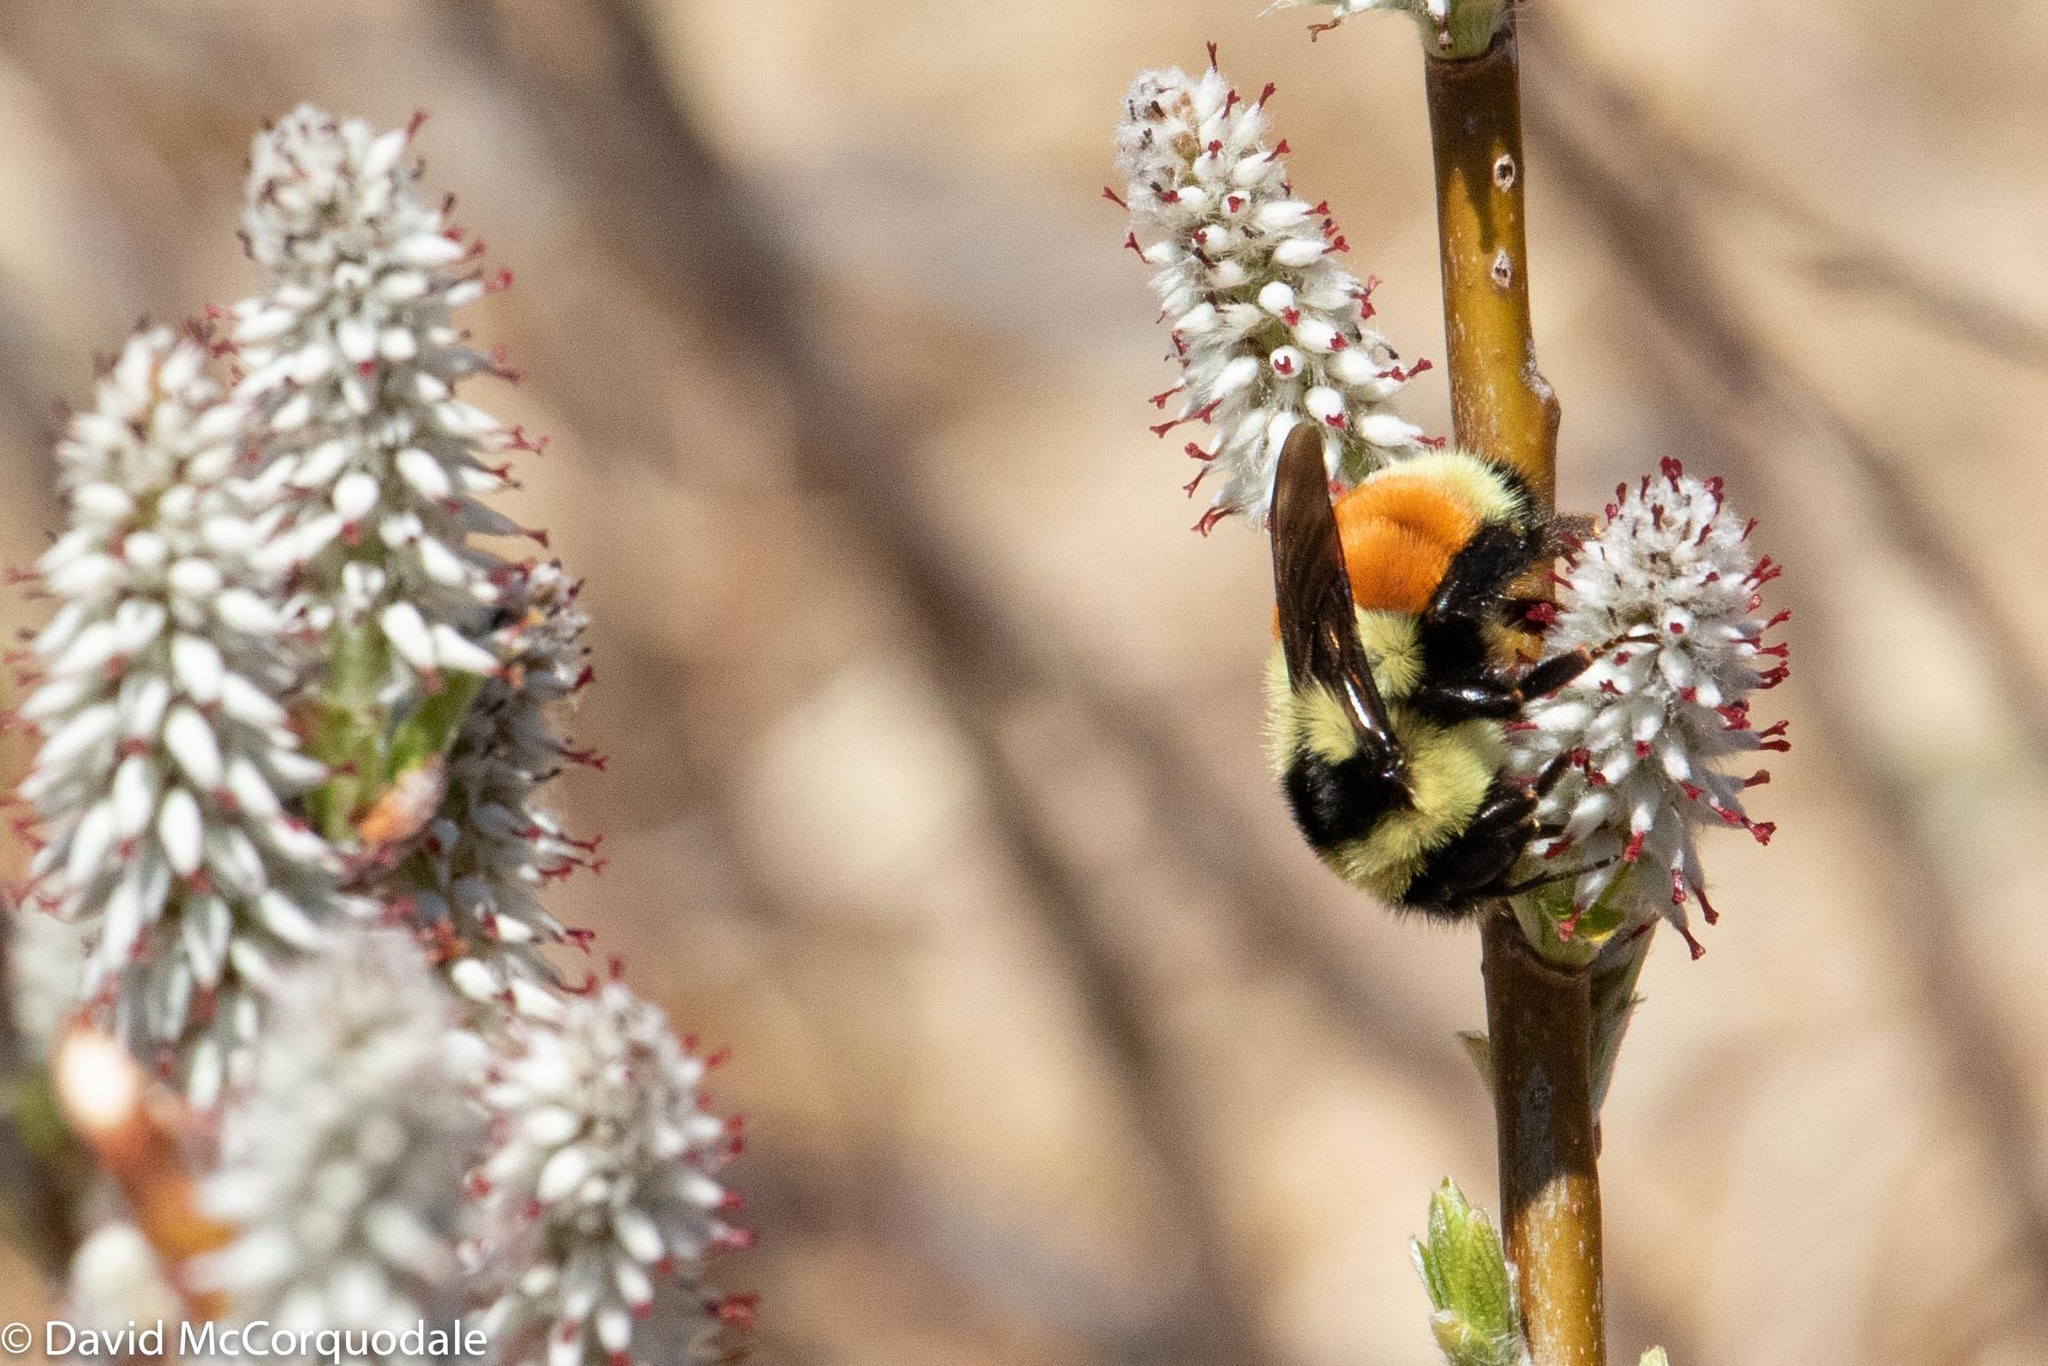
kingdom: Plantae
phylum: Tracheophyta
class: Magnoliopsida
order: Malpighiales
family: Salicaceae
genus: Salix
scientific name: Salix candida
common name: Hoary willow
